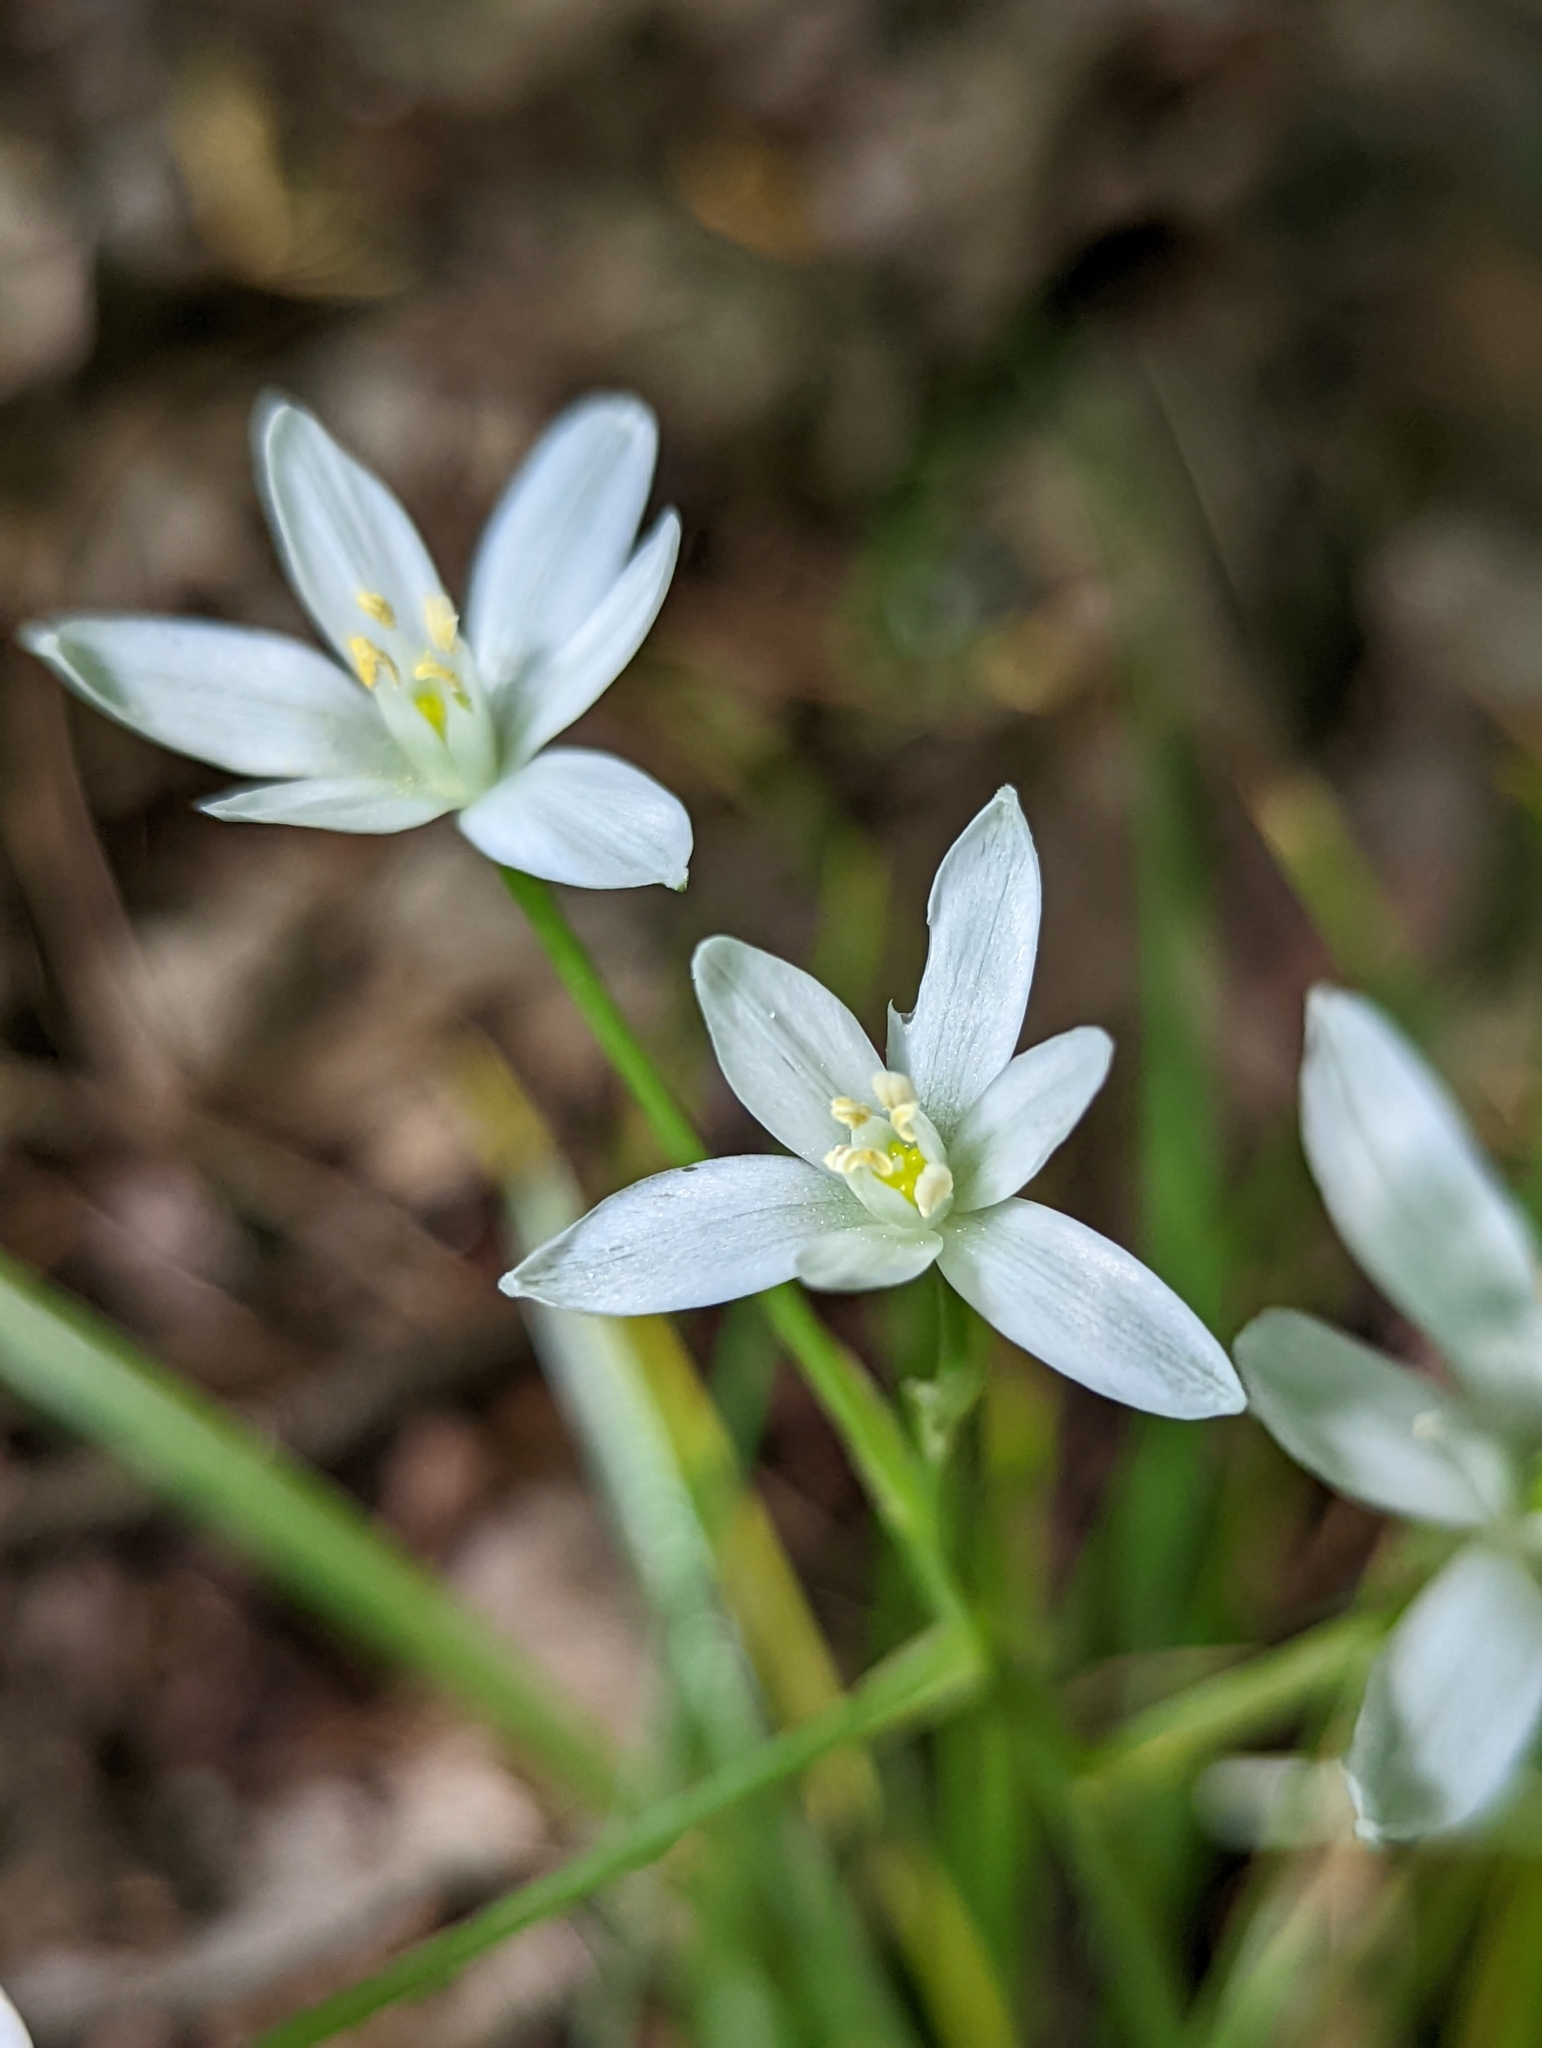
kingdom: Plantae
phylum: Tracheophyta
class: Liliopsida
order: Asparagales
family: Asparagaceae
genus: Ornithogalum
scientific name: Ornithogalum umbellatum
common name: Garden star-of-bethlehem
